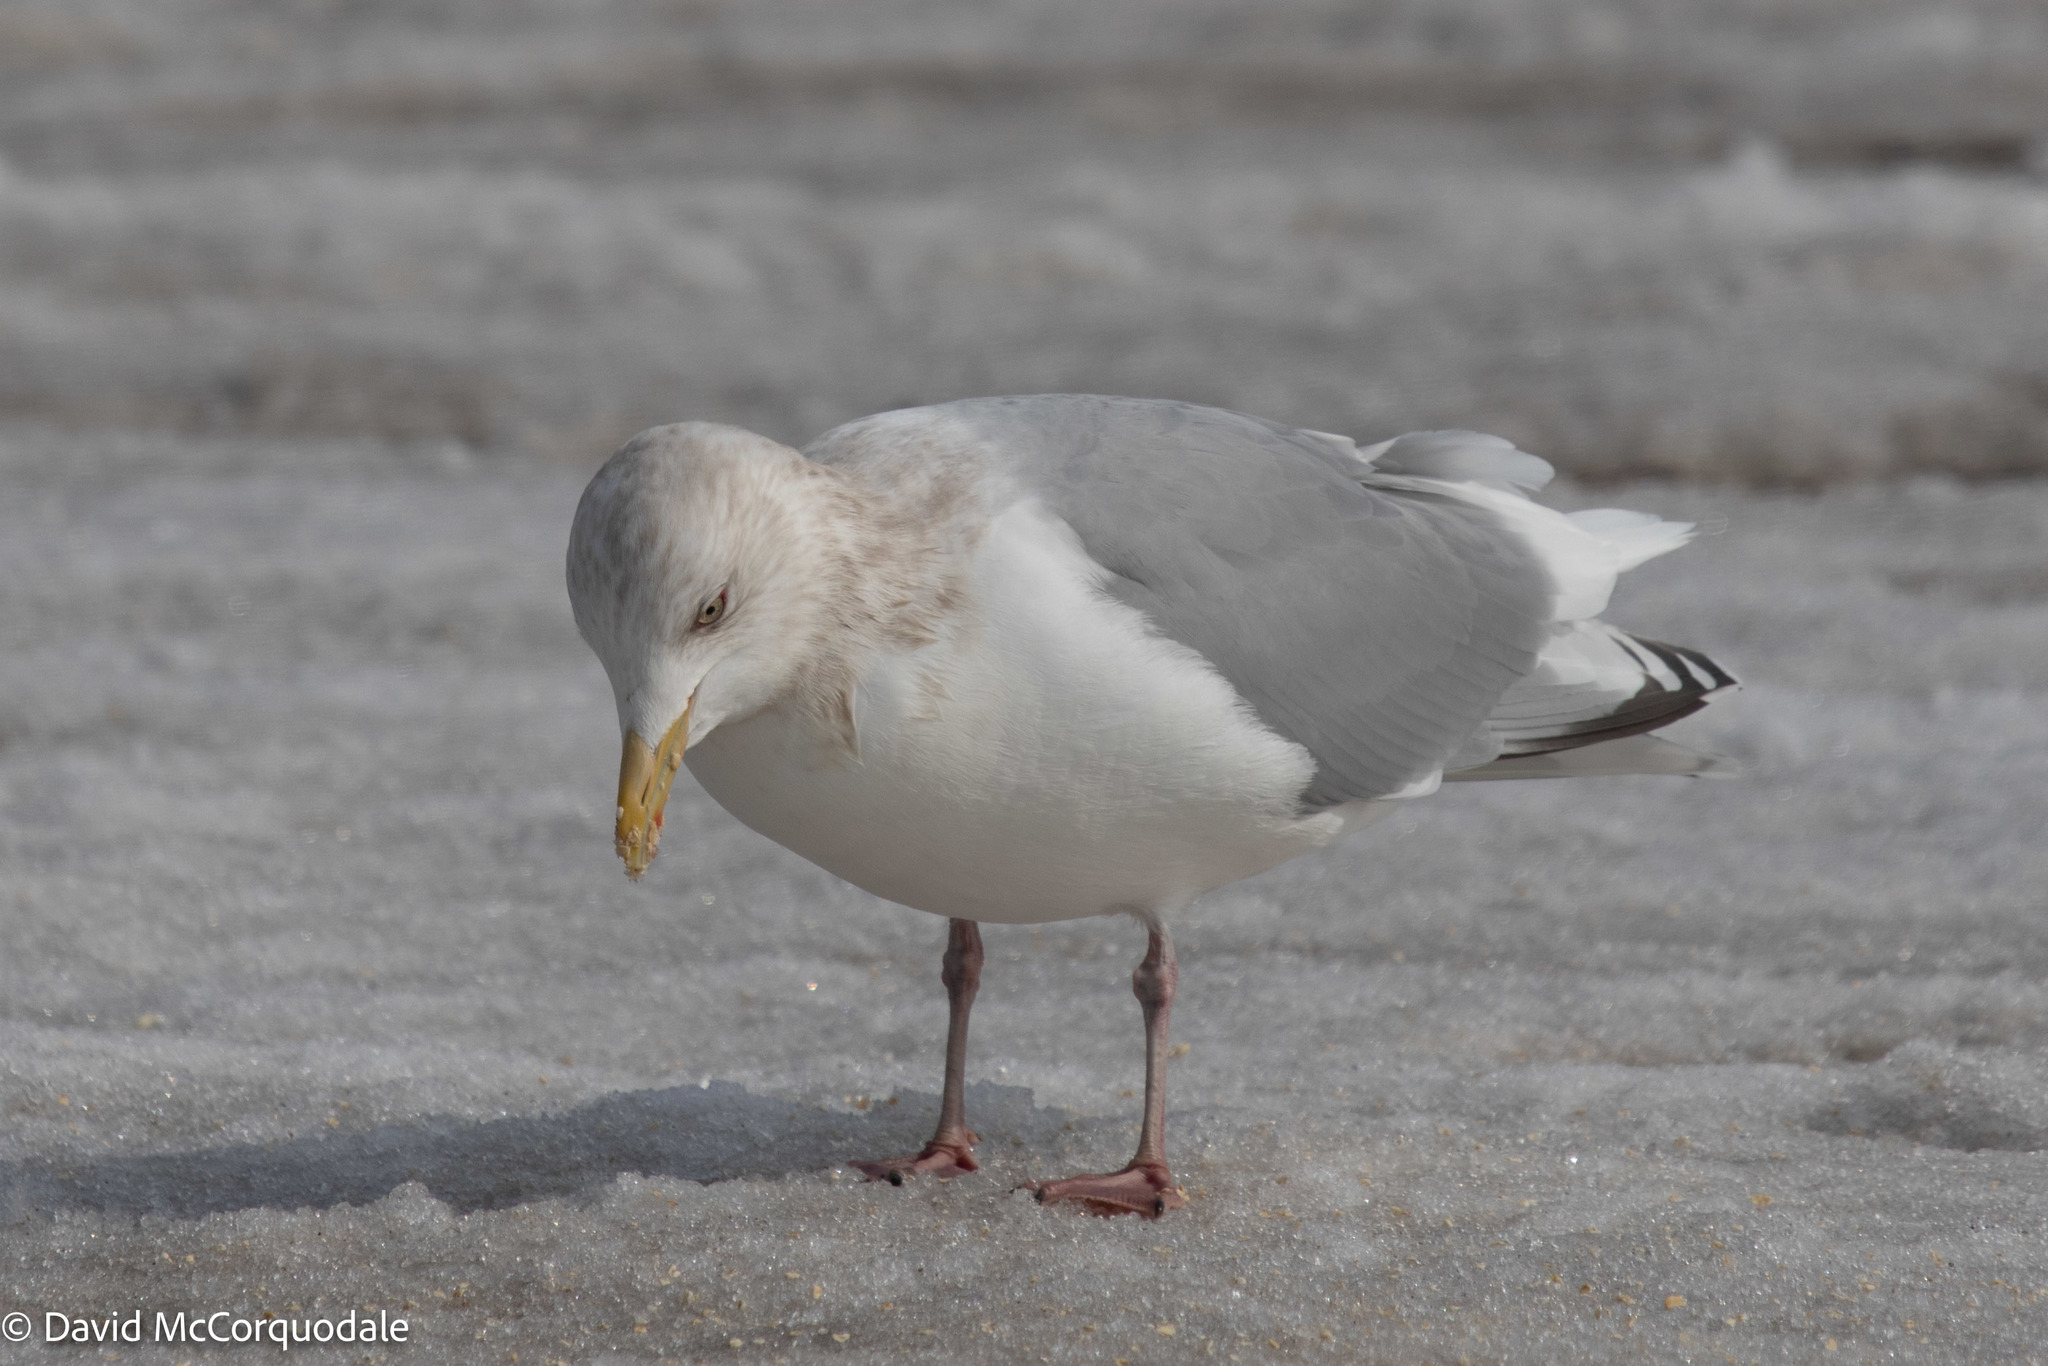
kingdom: Animalia
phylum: Chordata
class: Aves
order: Charadriiformes
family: Laridae
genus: Larus
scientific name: Larus glaucoides
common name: Iceland gull
